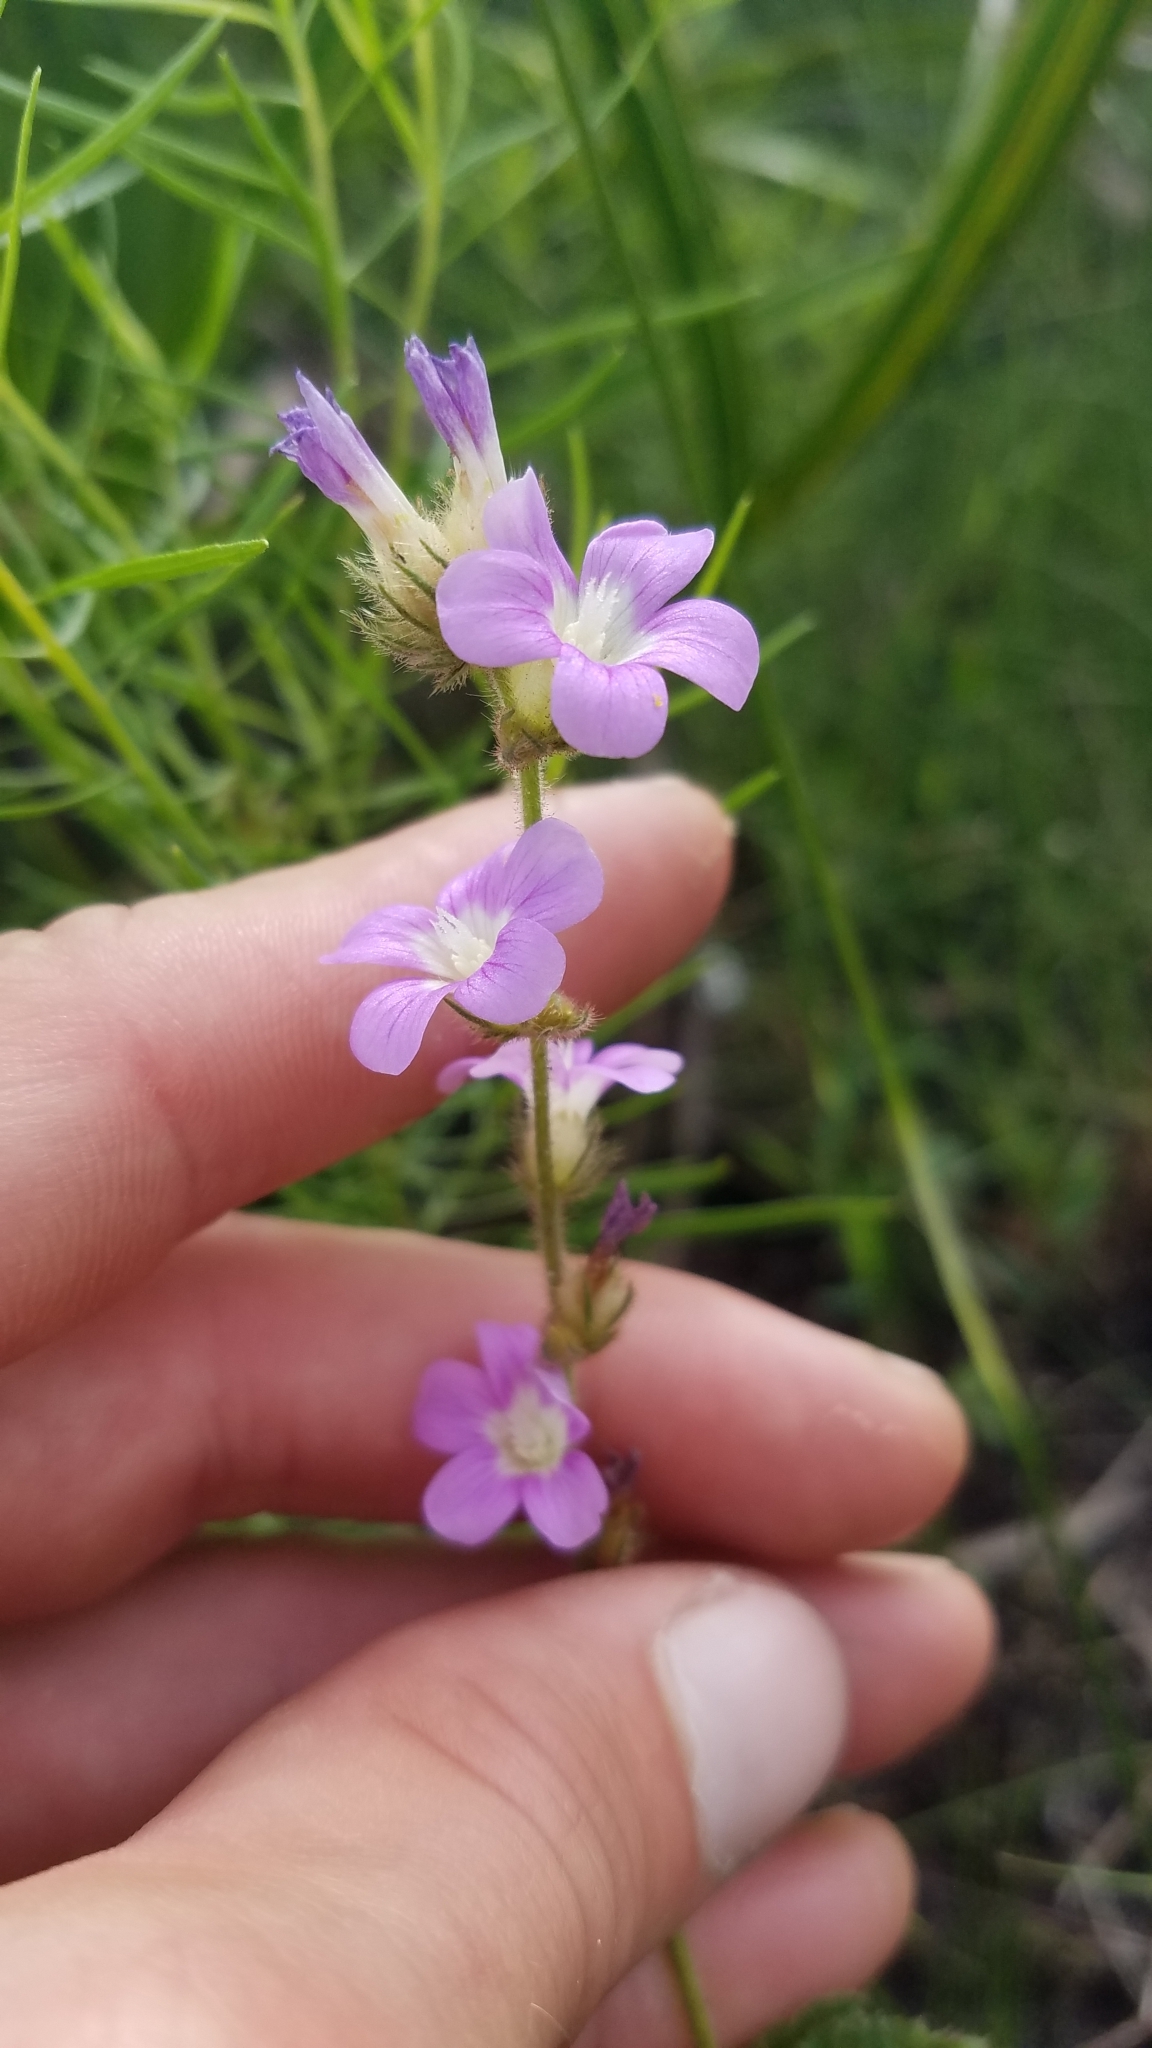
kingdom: Plantae
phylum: Tracheophyta
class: Magnoliopsida
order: Malvales
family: Malvaceae
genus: Melochia
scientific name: Melochia spicata
